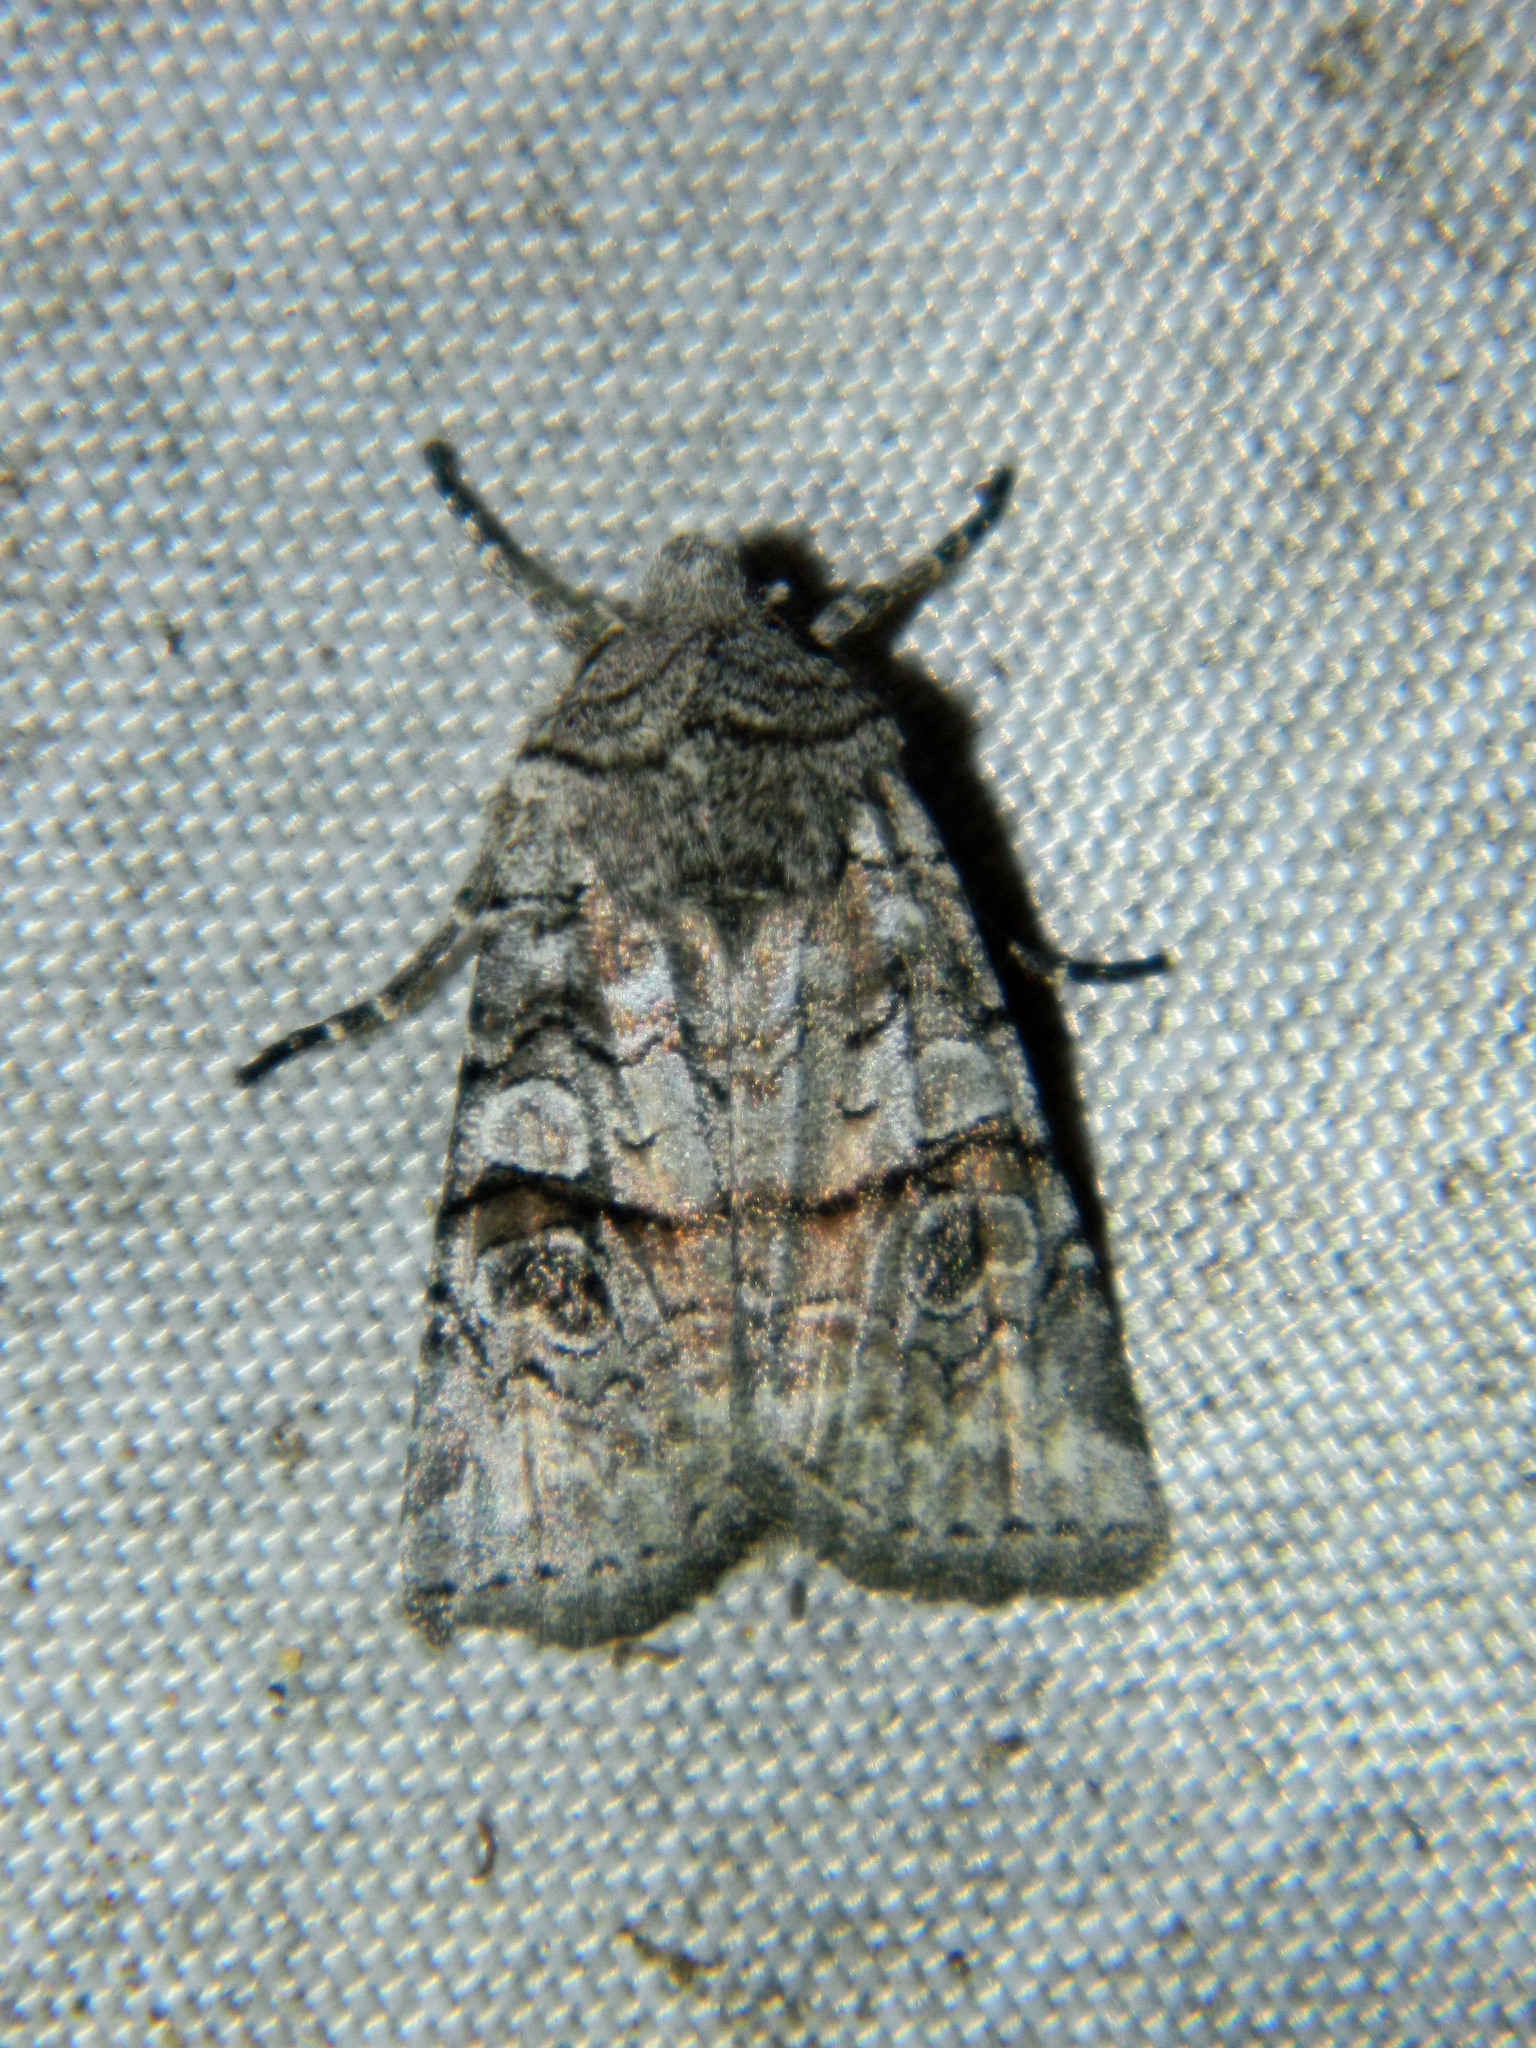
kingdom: Animalia
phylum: Arthropoda
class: Insecta
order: Lepidoptera
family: Noctuidae
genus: Litholomia
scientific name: Litholomia napaea
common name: False pinion moth
